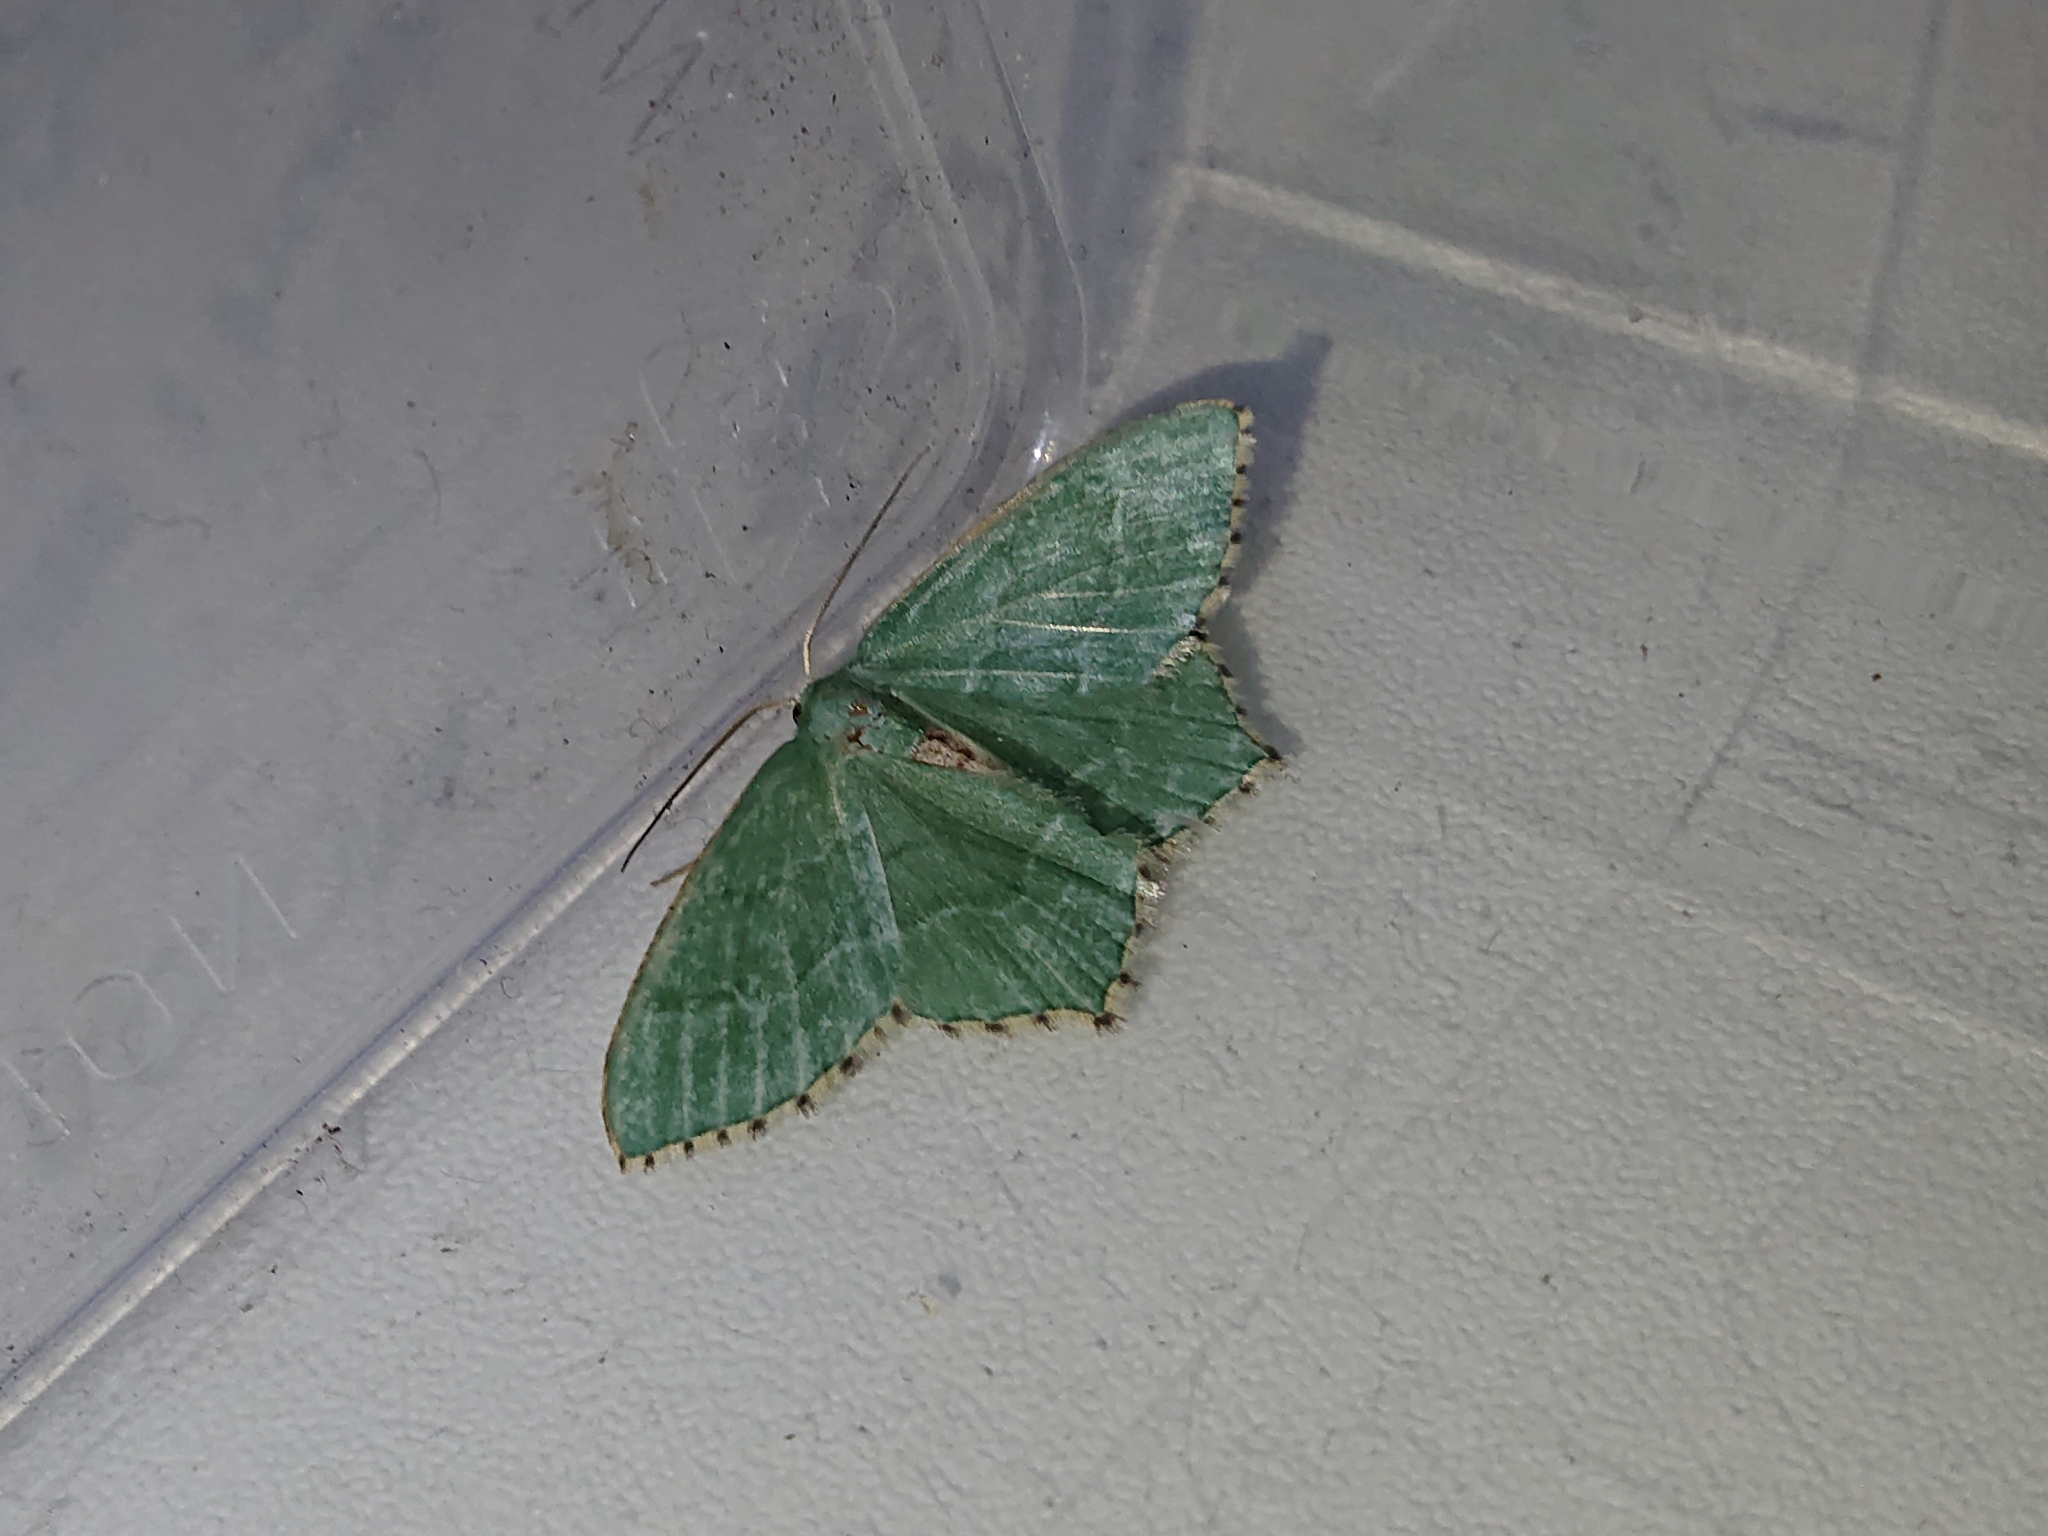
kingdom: Animalia
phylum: Arthropoda
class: Insecta
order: Lepidoptera
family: Geometridae
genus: Hemithea
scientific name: Hemithea aestivaria
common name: Common emerald
